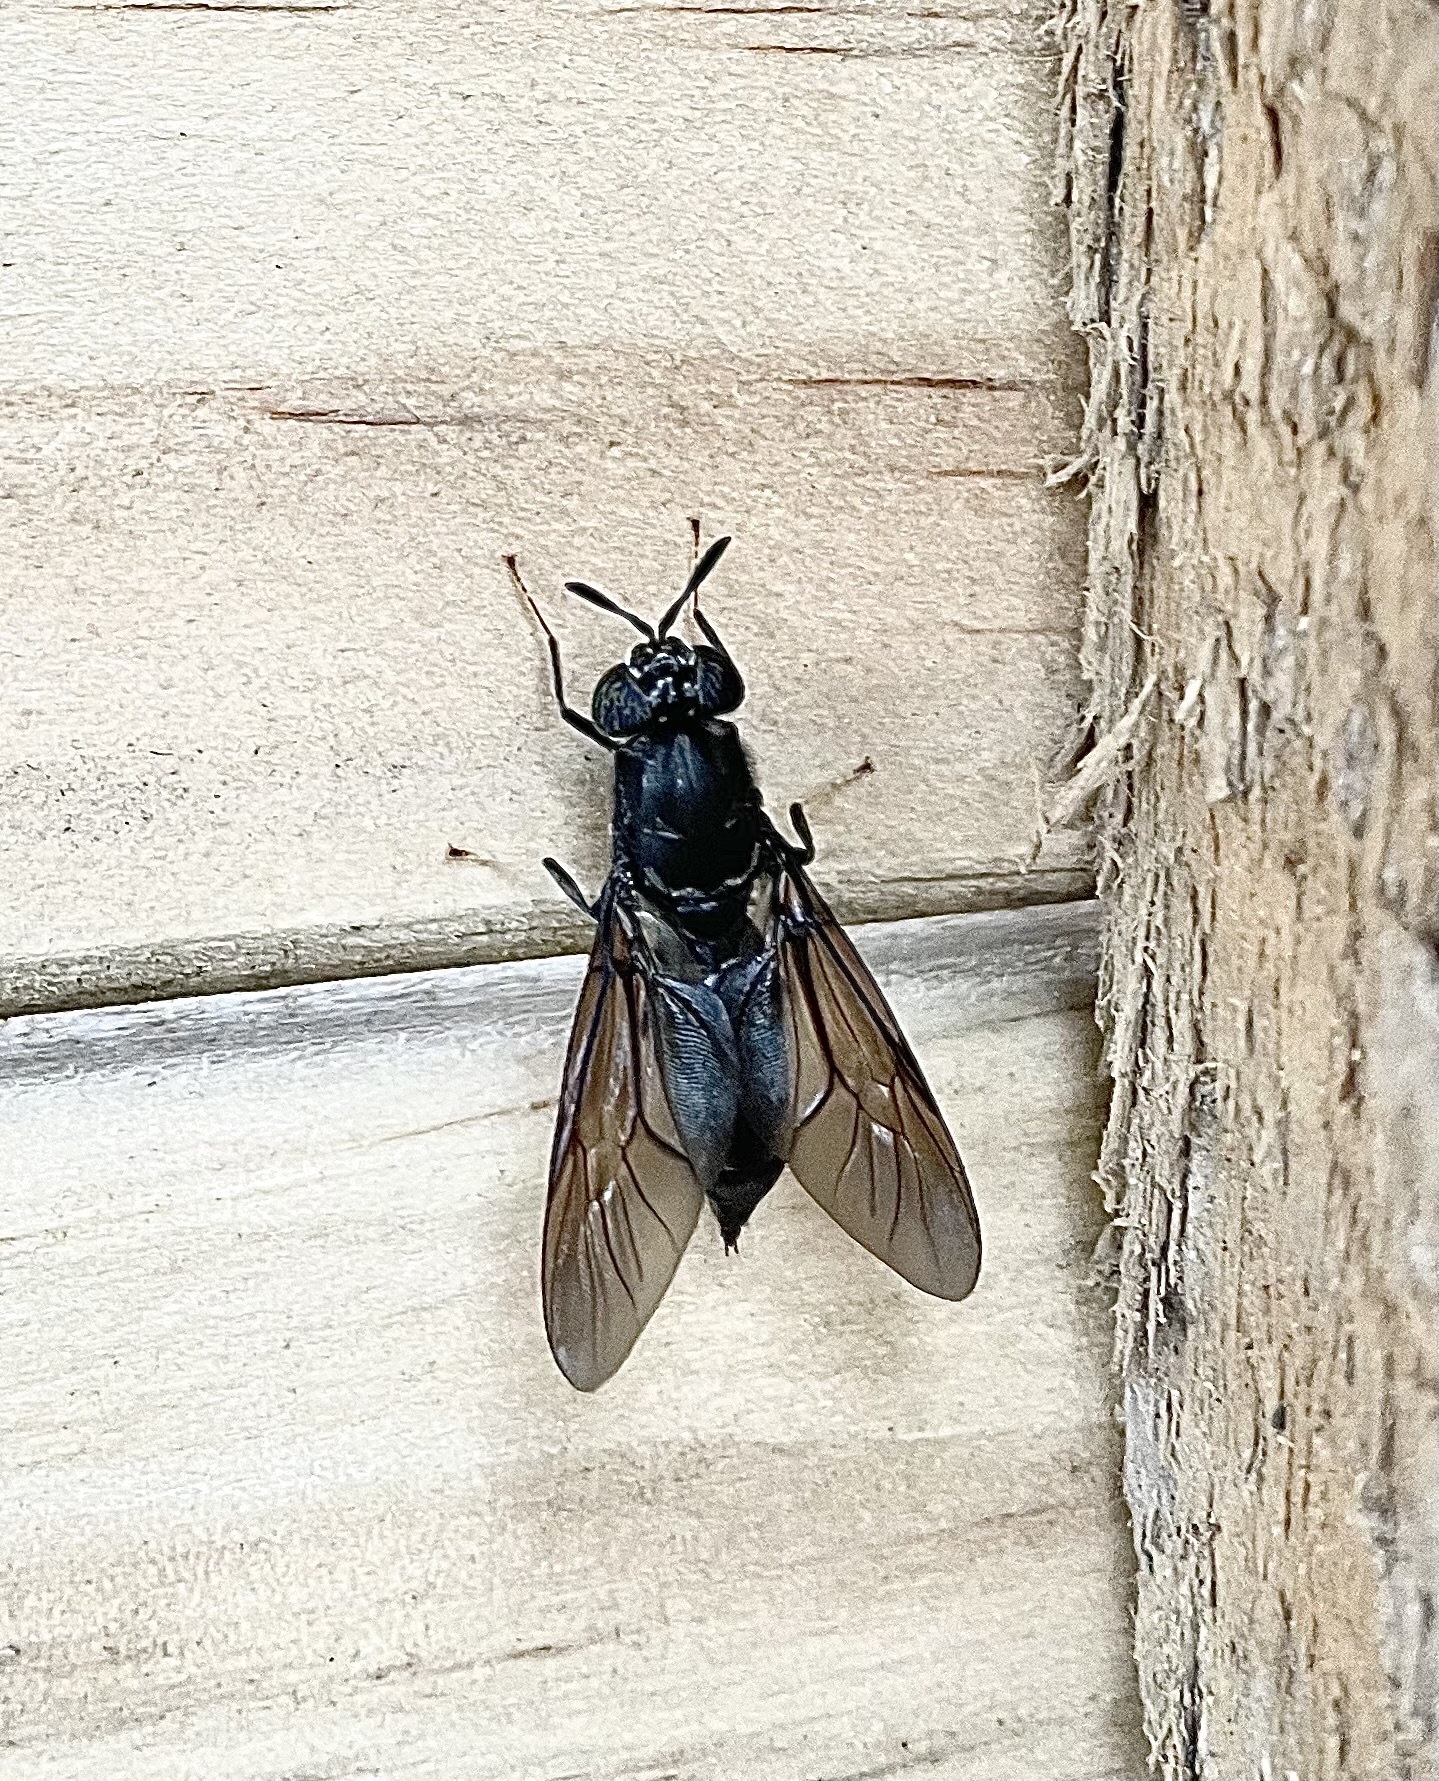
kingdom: Animalia
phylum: Arthropoda
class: Insecta
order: Diptera
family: Stratiomyidae
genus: Hermetia
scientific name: Hermetia illucens
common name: Black soldier fly
